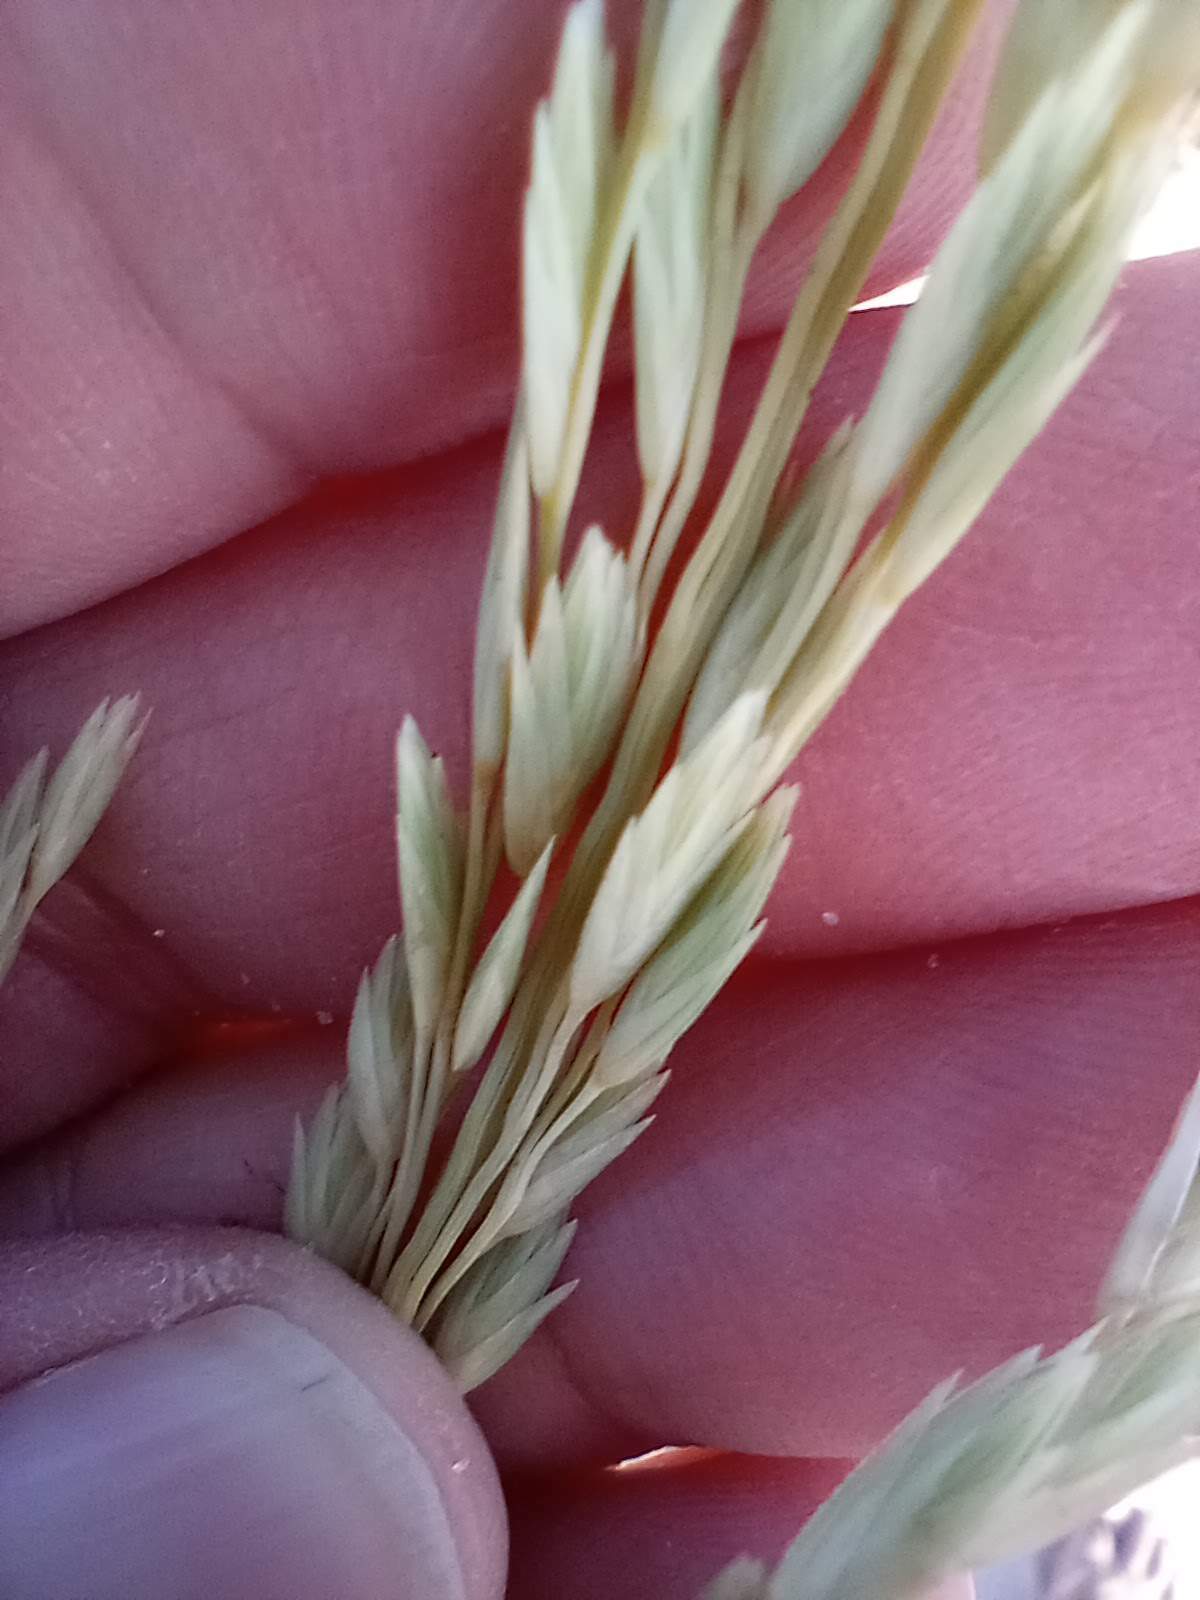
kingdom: Plantae
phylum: Tracheophyta
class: Liliopsida
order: Poales
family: Poaceae
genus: Uniola
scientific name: Uniola paniculata
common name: Seaside-oats
